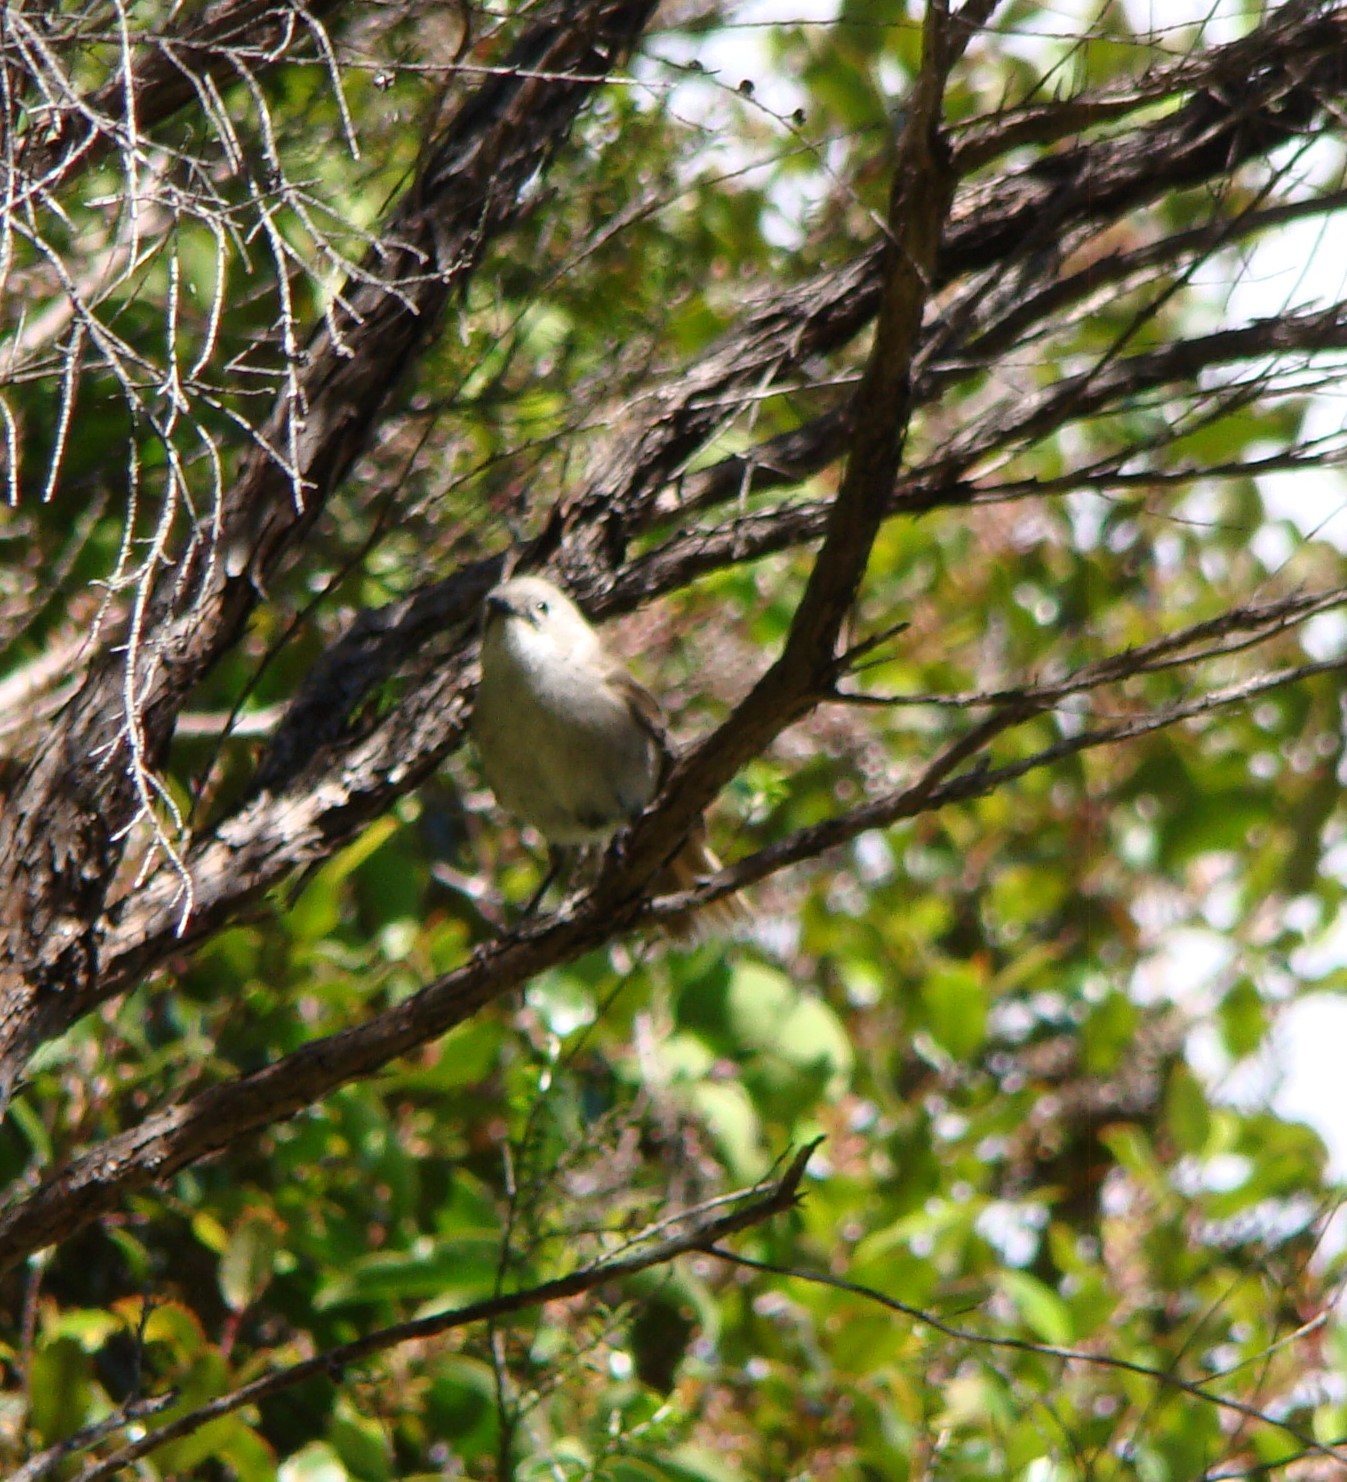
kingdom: Animalia
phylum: Chordata
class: Aves
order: Passeriformes
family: Acanthizidae
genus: Mohoua
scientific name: Mohoua albicilla
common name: Whitehead
